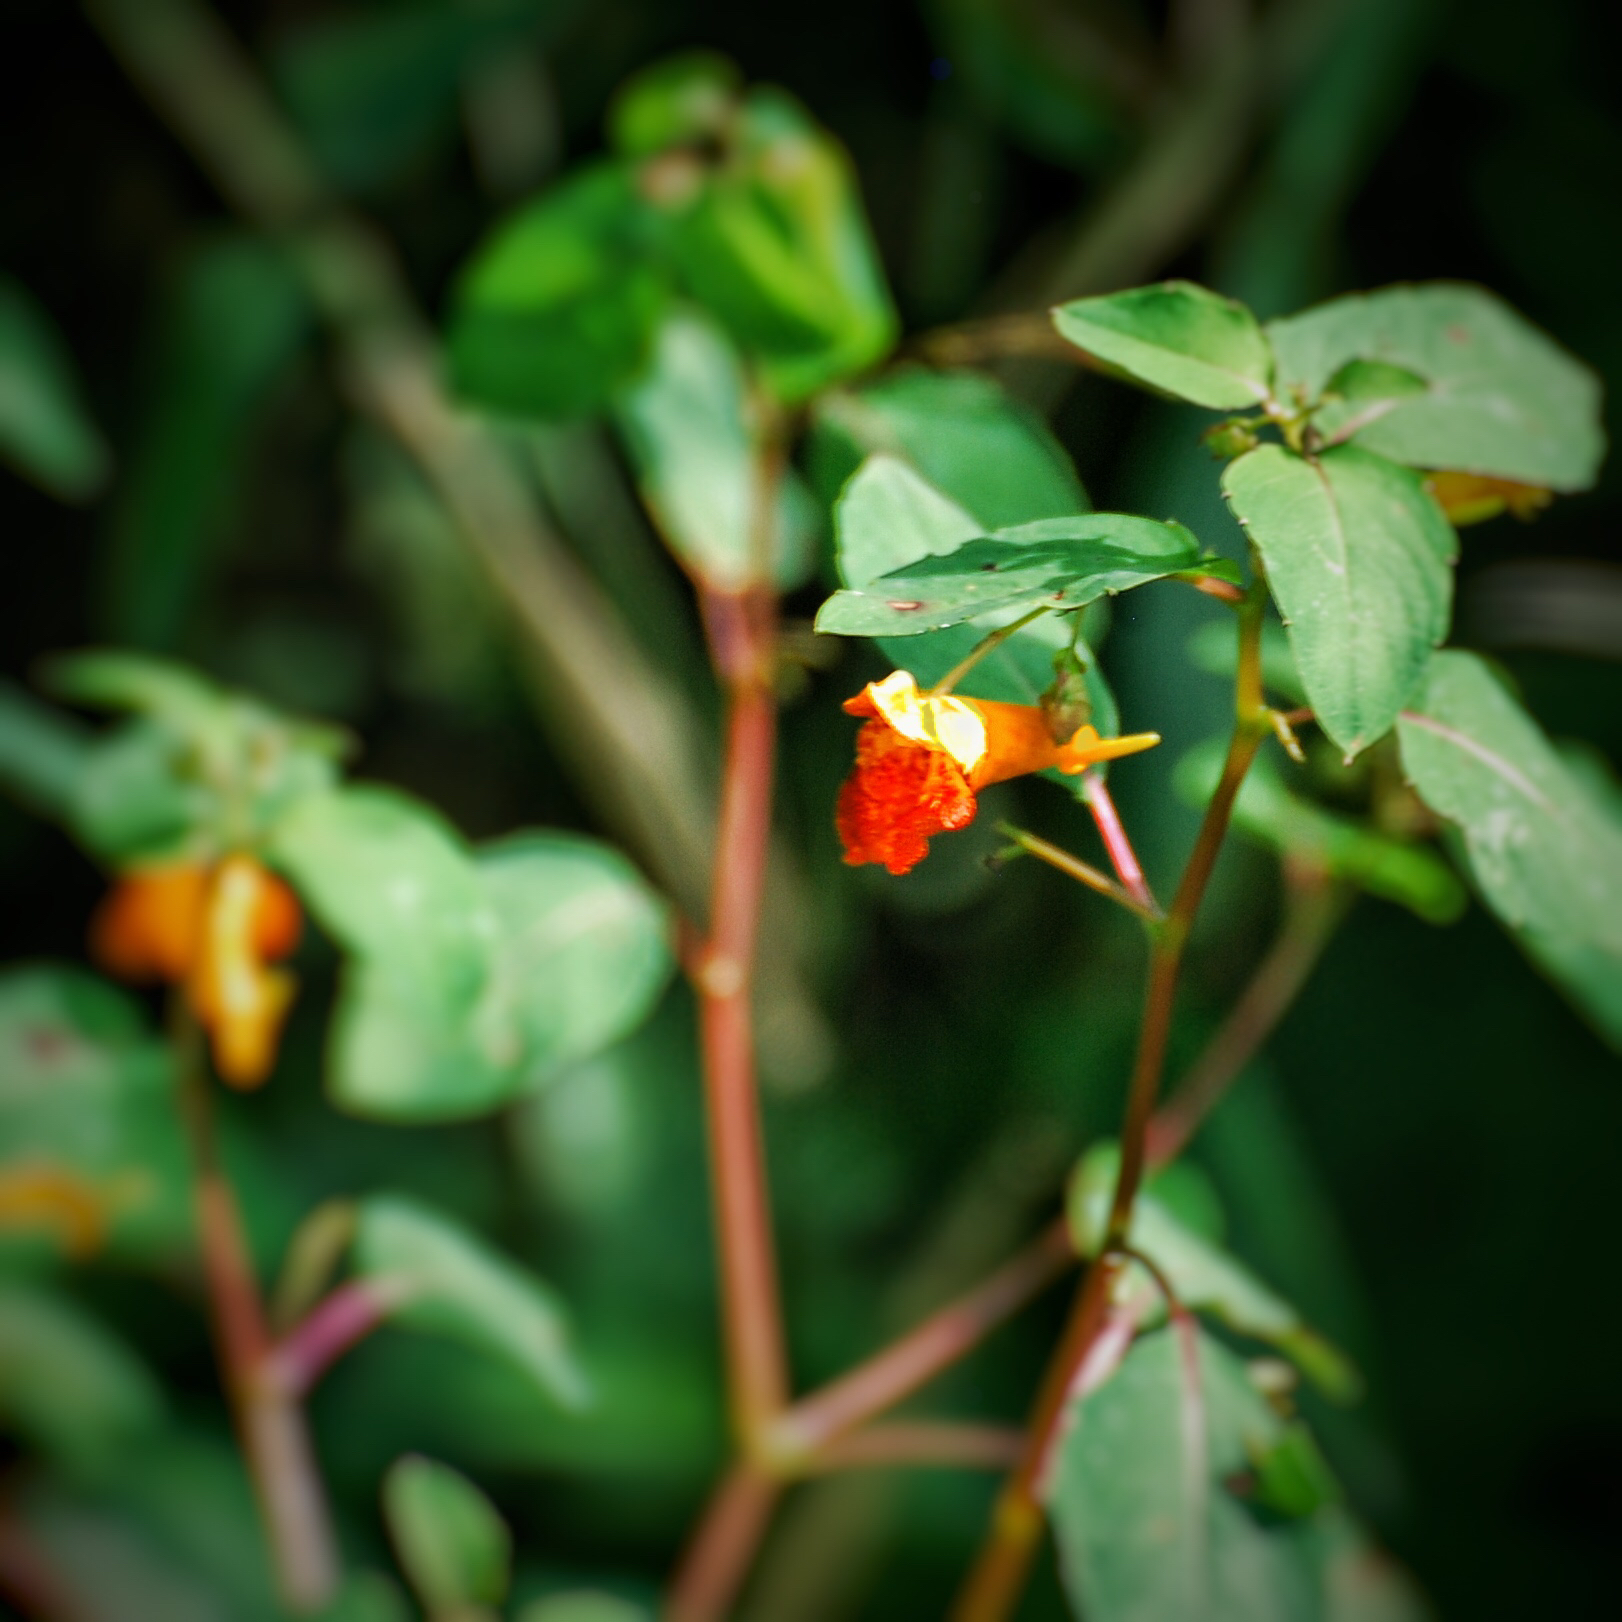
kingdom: Plantae
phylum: Tracheophyta
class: Magnoliopsida
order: Ericales
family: Balsaminaceae
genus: Impatiens
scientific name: Impatiens capensis
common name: Orange balsam
